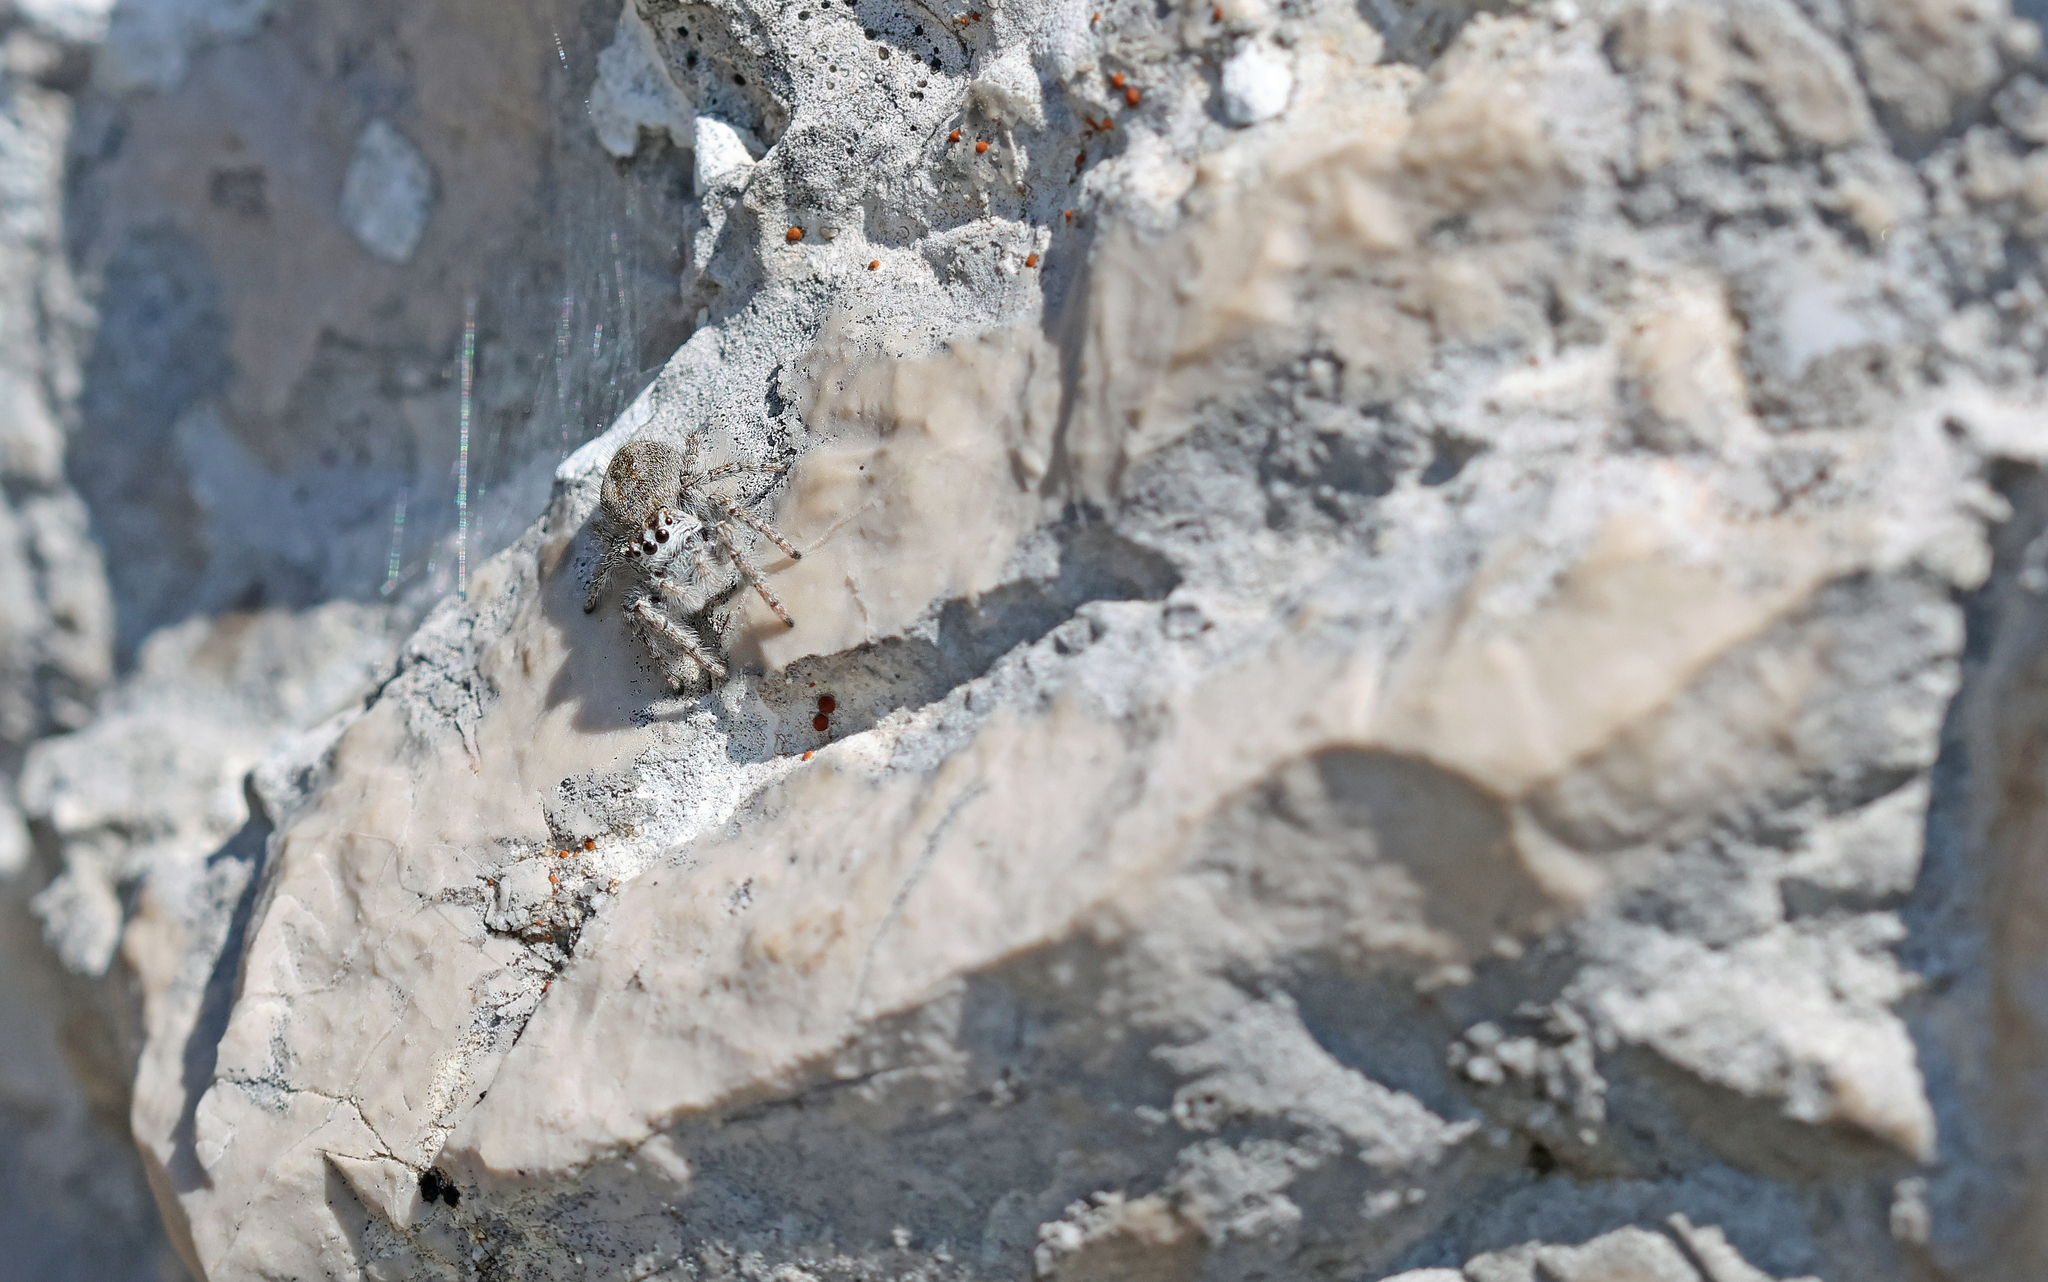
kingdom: Animalia
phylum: Arthropoda
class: Arachnida
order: Araneae
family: Salticidae
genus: Philaeus
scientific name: Philaeus chrysops
